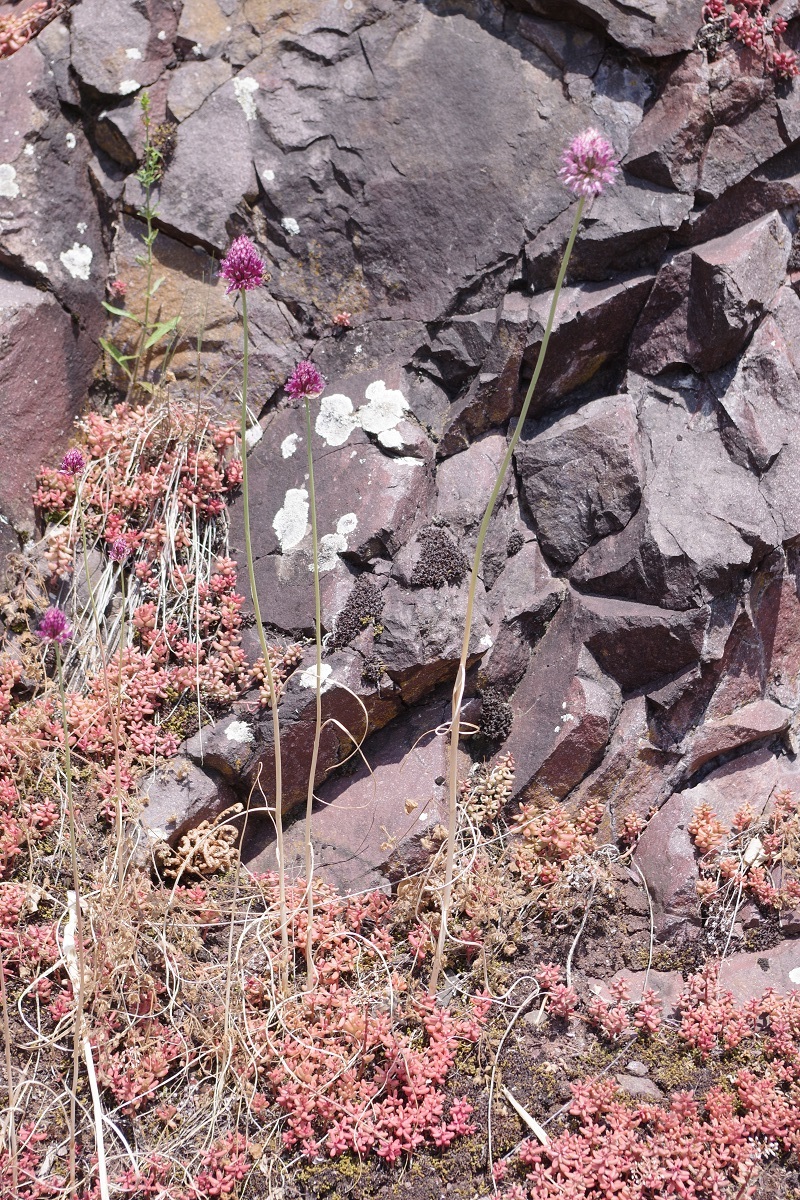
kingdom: Plantae
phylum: Tracheophyta
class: Liliopsida
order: Asparagales
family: Amaryllidaceae
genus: Allium
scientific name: Allium sphaerocephalon
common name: Round-headed leek
